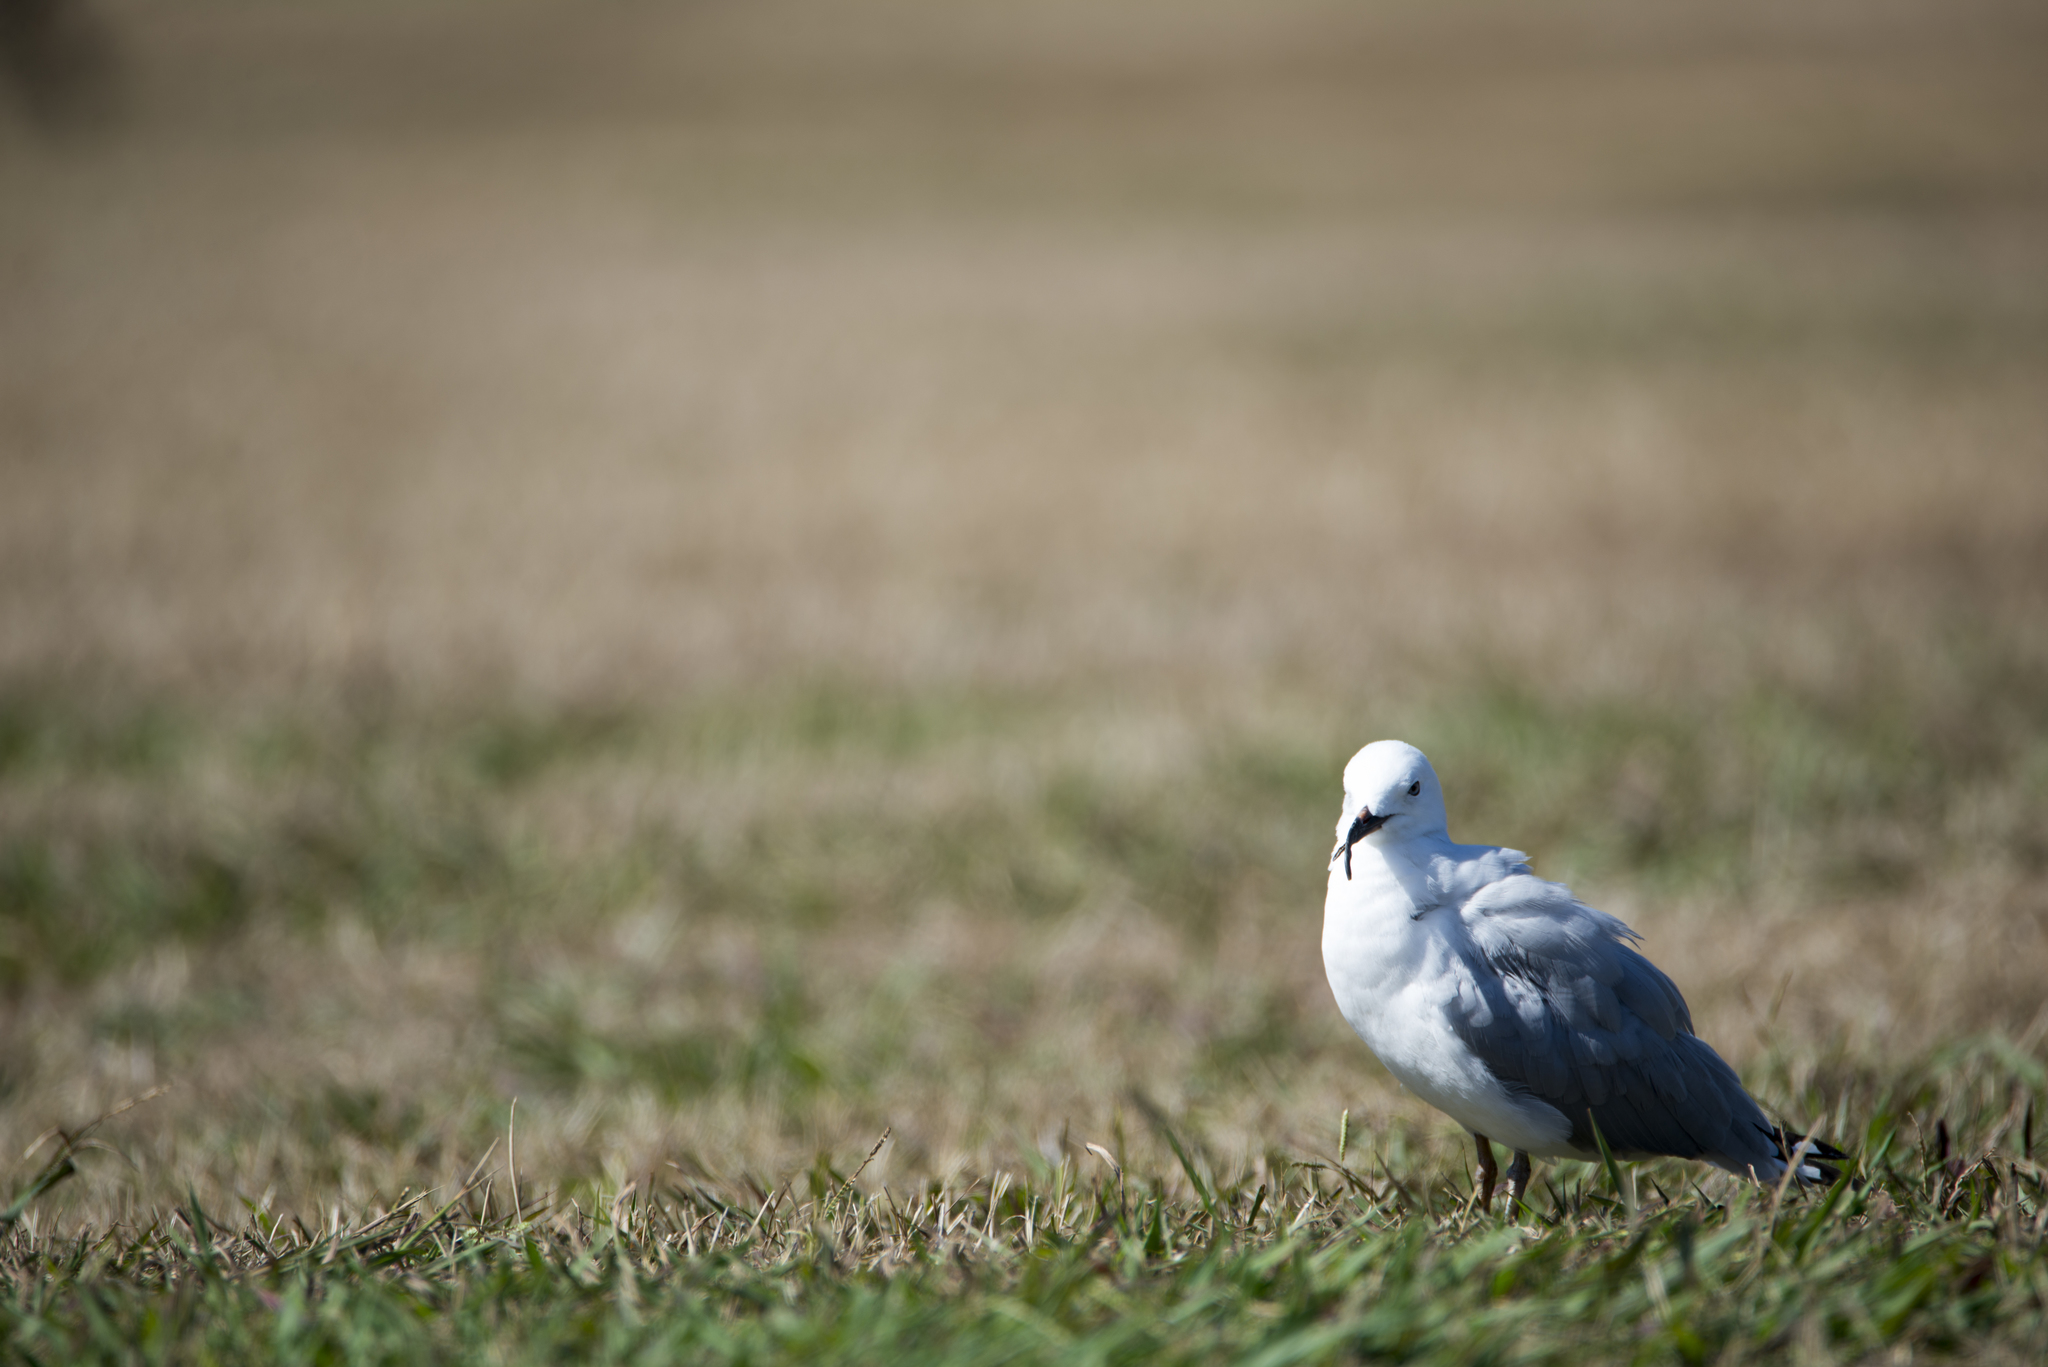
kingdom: Animalia
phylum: Chordata
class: Aves
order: Charadriiformes
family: Laridae
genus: Chroicocephalus
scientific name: Chroicocephalus novaehollandiae
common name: Silver gull
